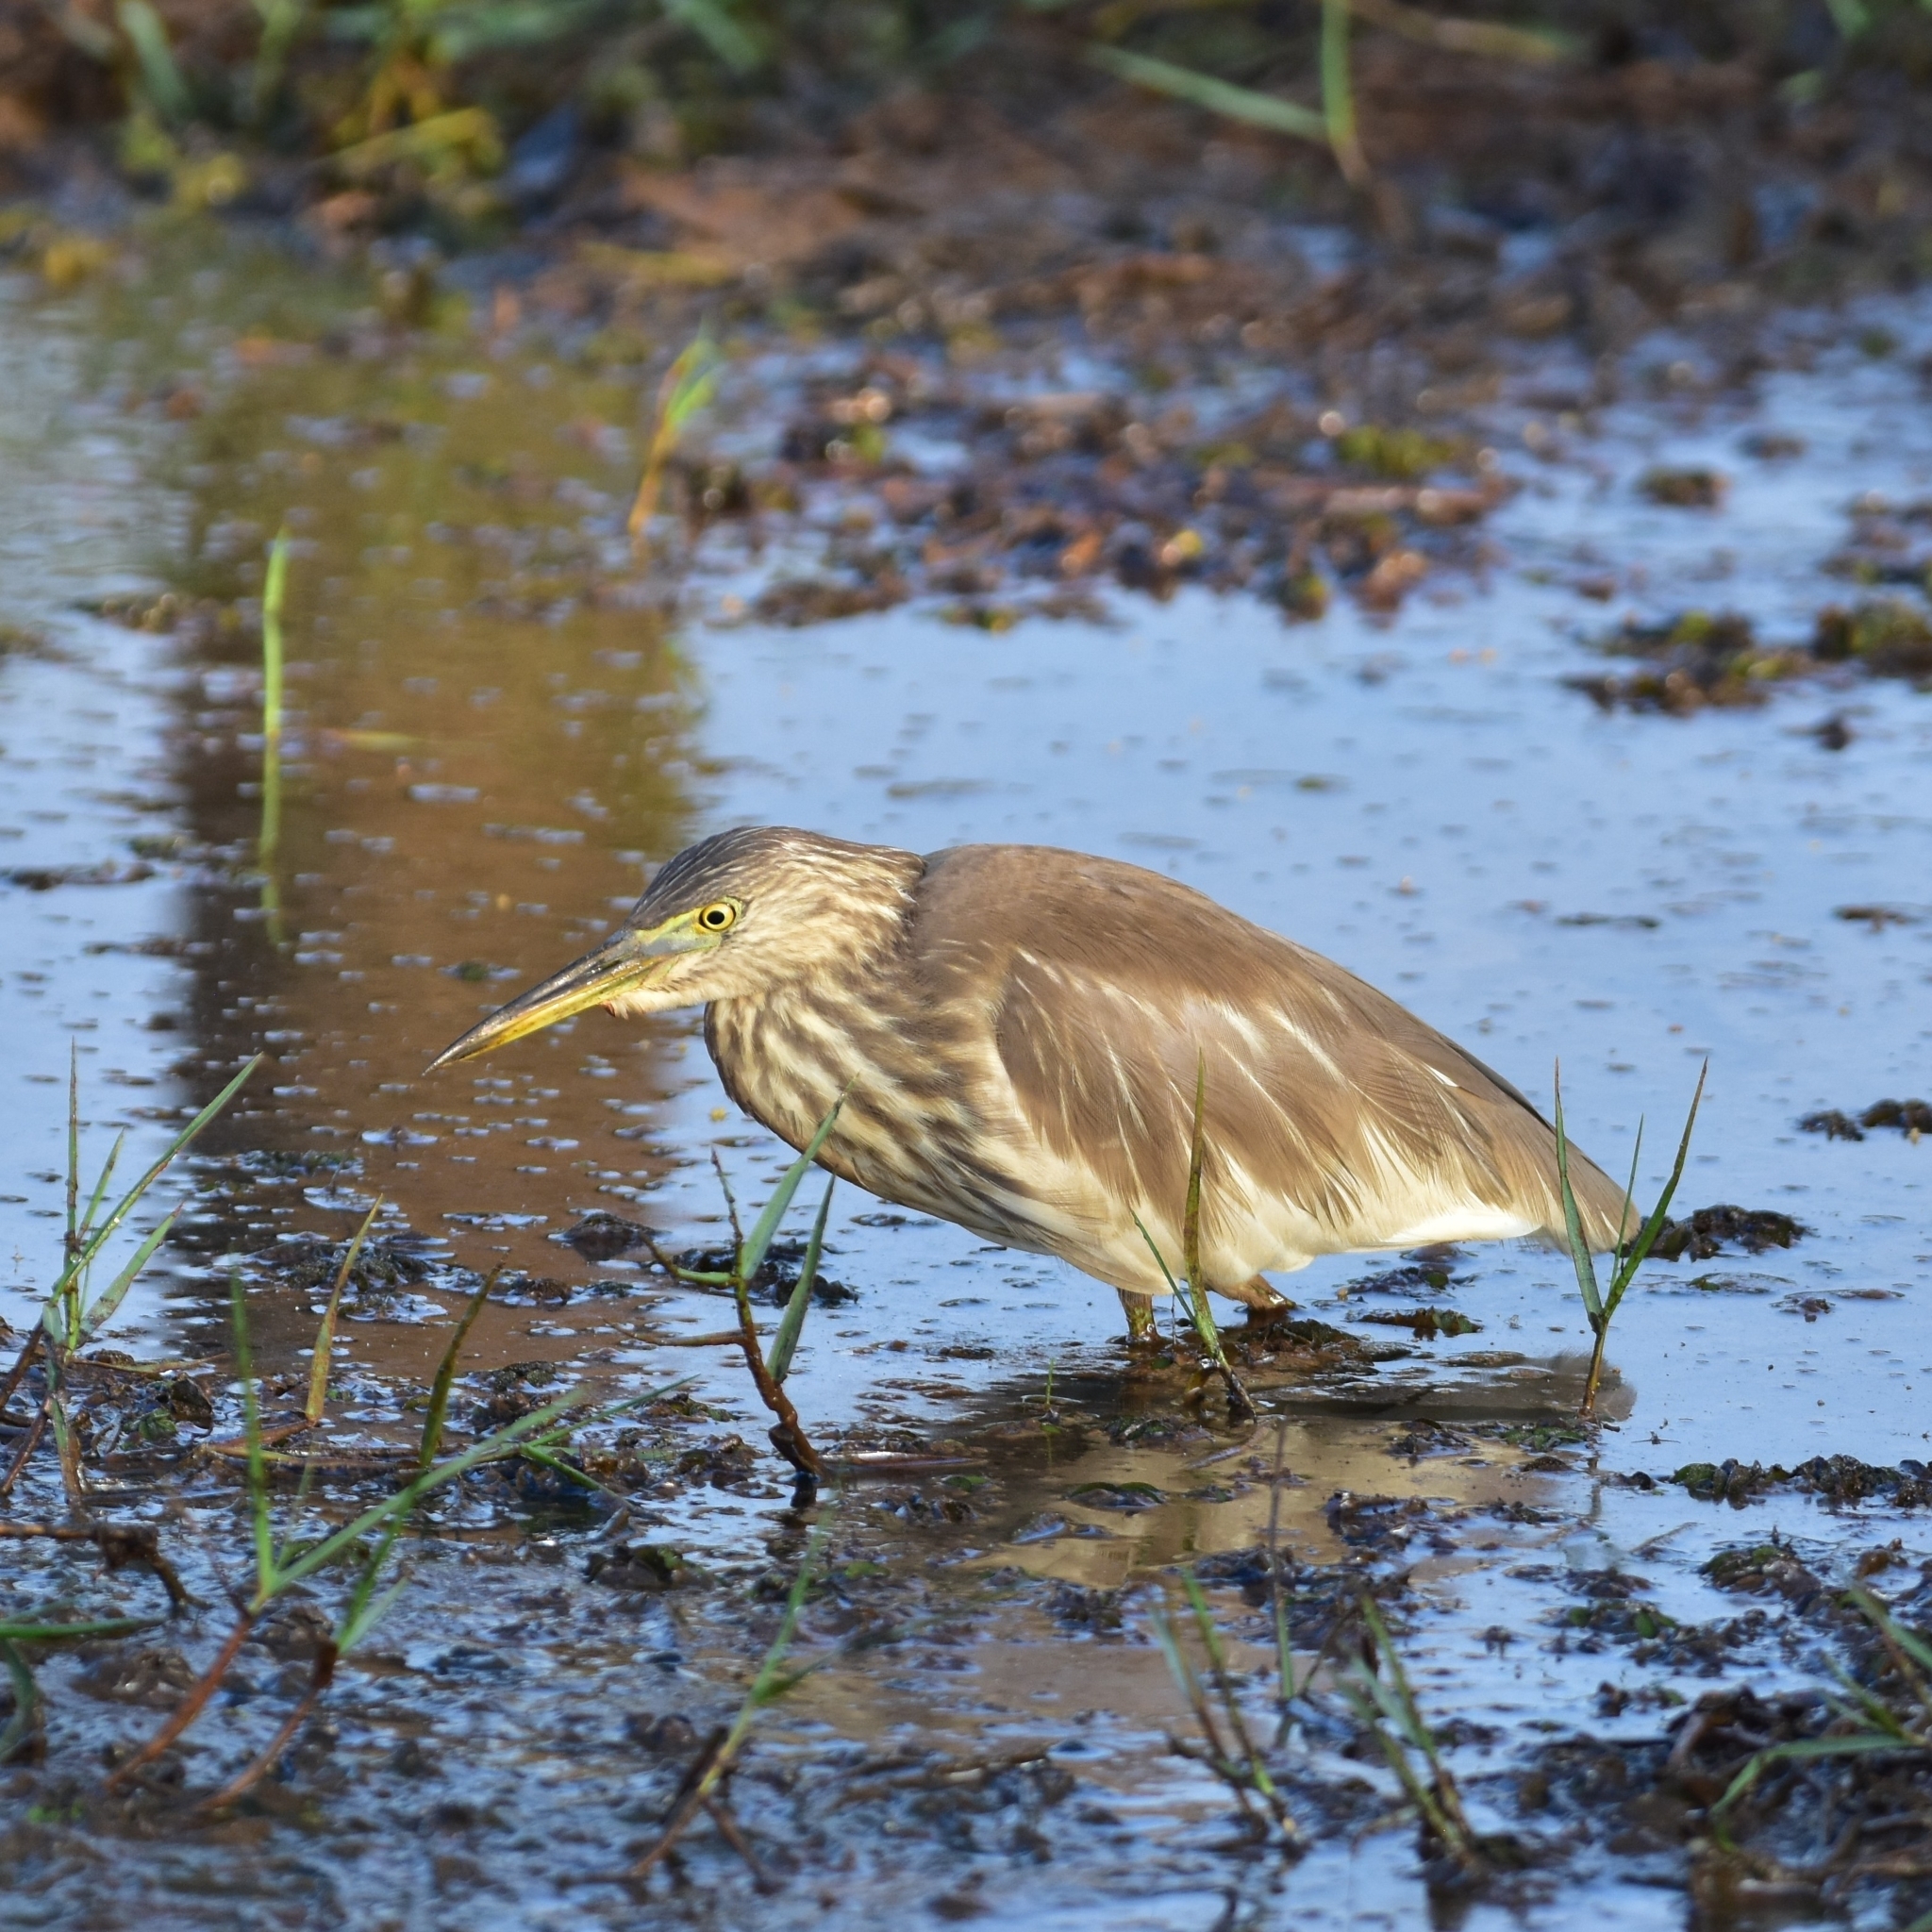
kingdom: Animalia
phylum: Chordata
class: Aves
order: Pelecaniformes
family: Ardeidae
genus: Ardeola
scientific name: Ardeola grayii
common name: Indian pond heron
